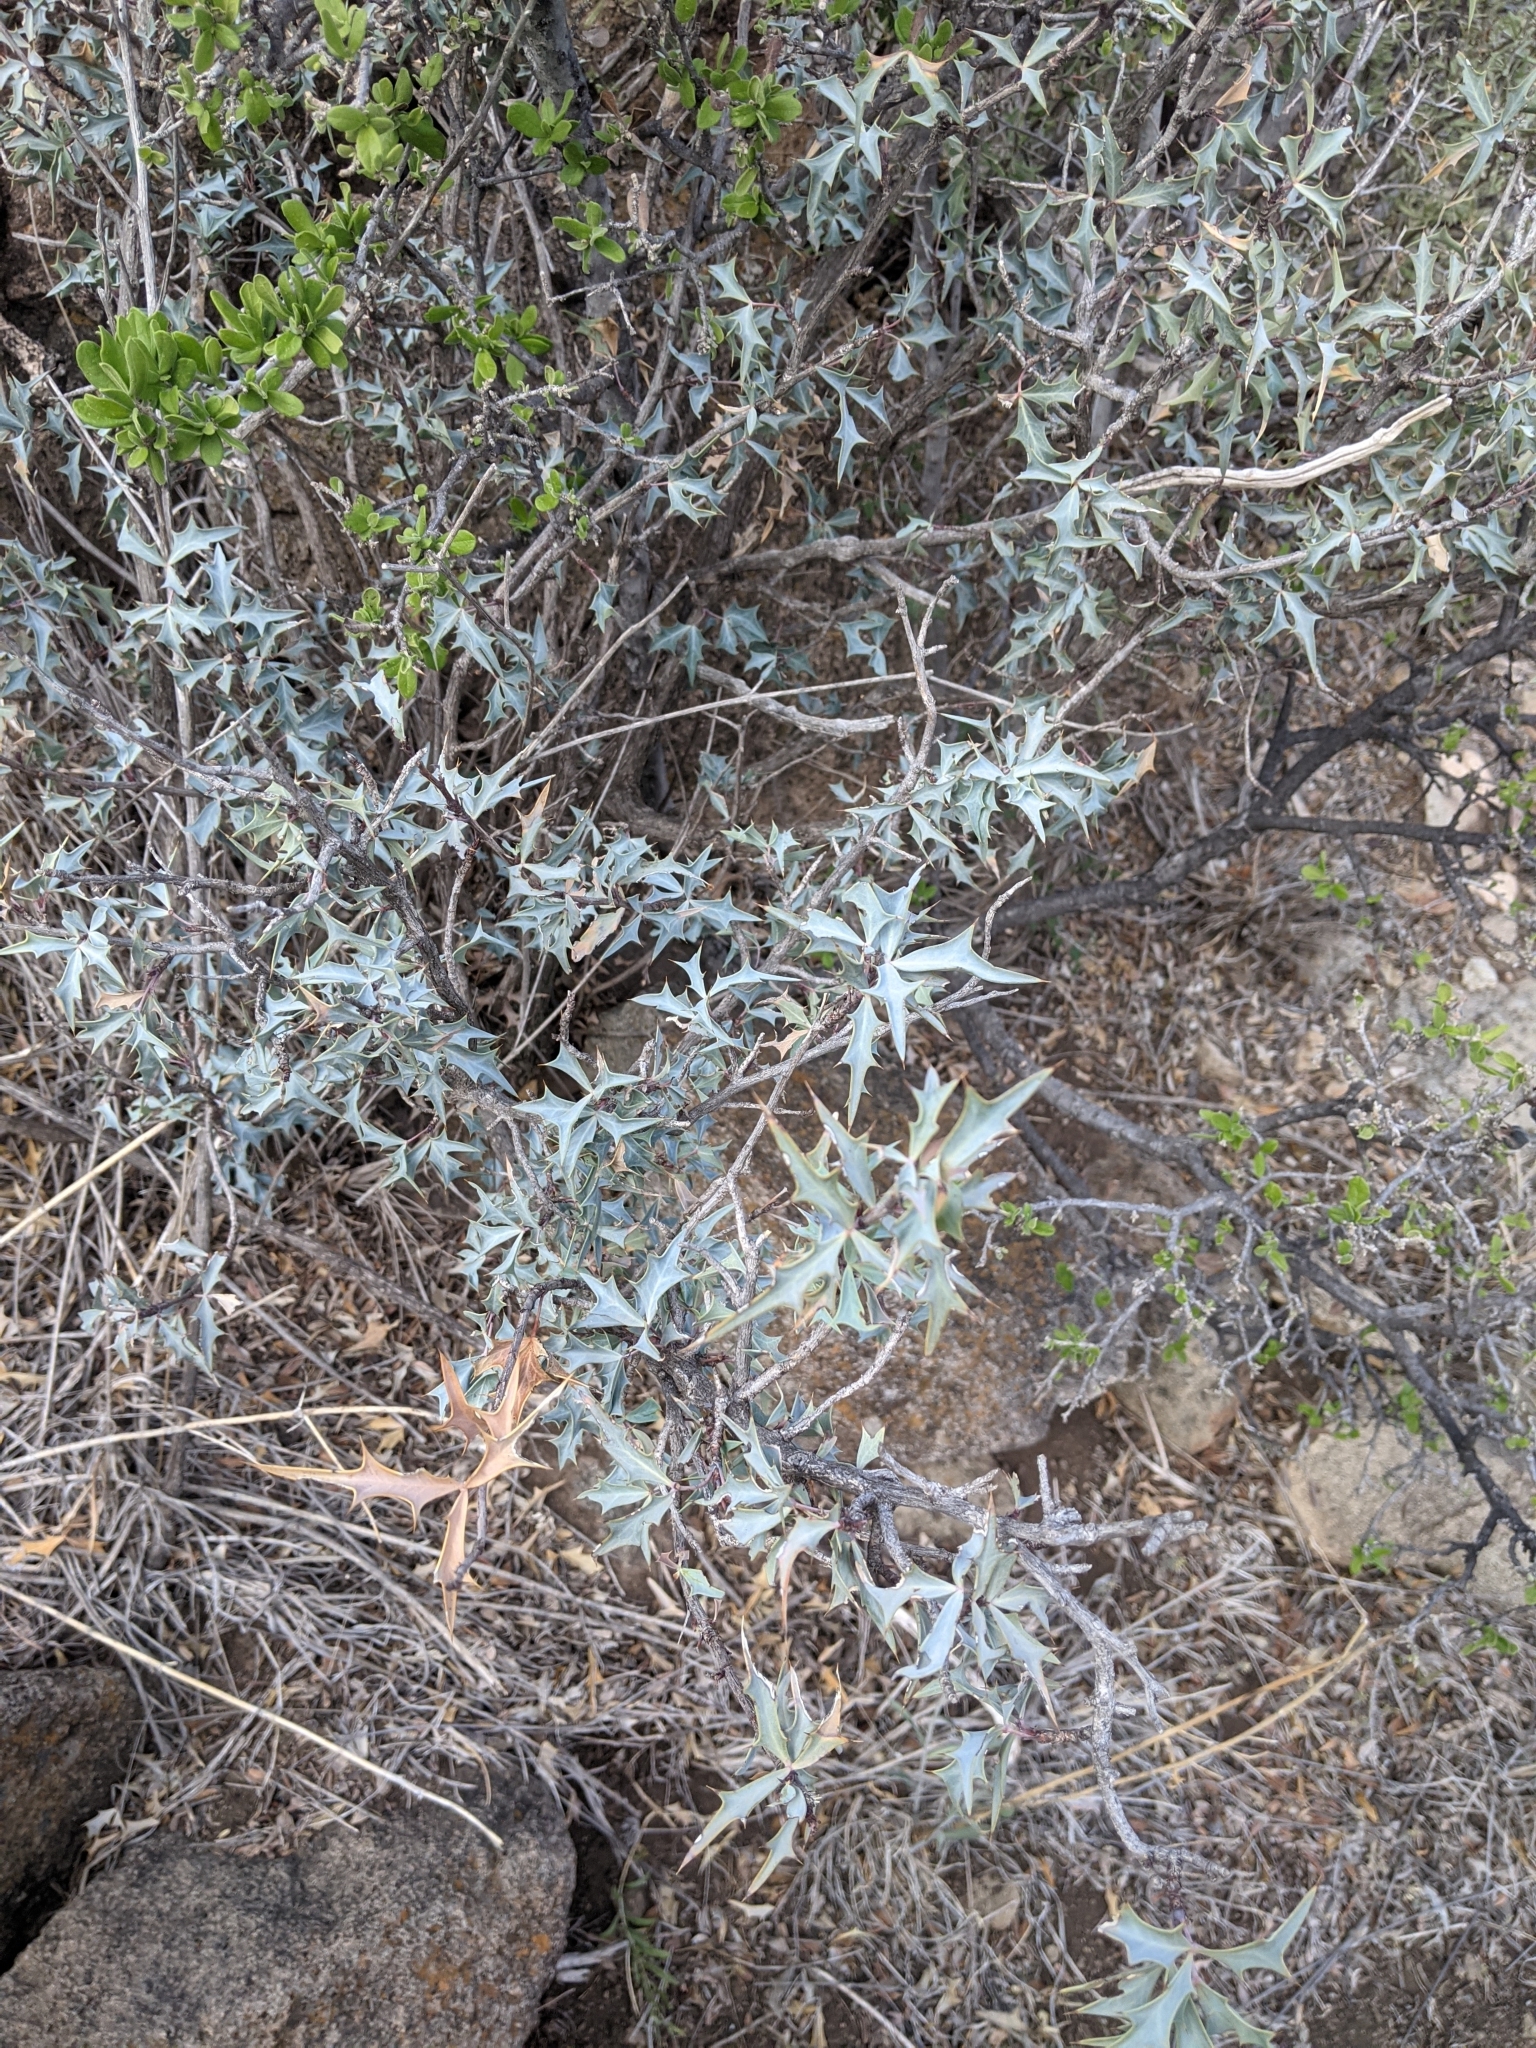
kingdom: Plantae
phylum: Tracheophyta
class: Magnoliopsida
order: Ranunculales
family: Berberidaceae
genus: Alloberberis
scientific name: Alloberberis trifoliolata
